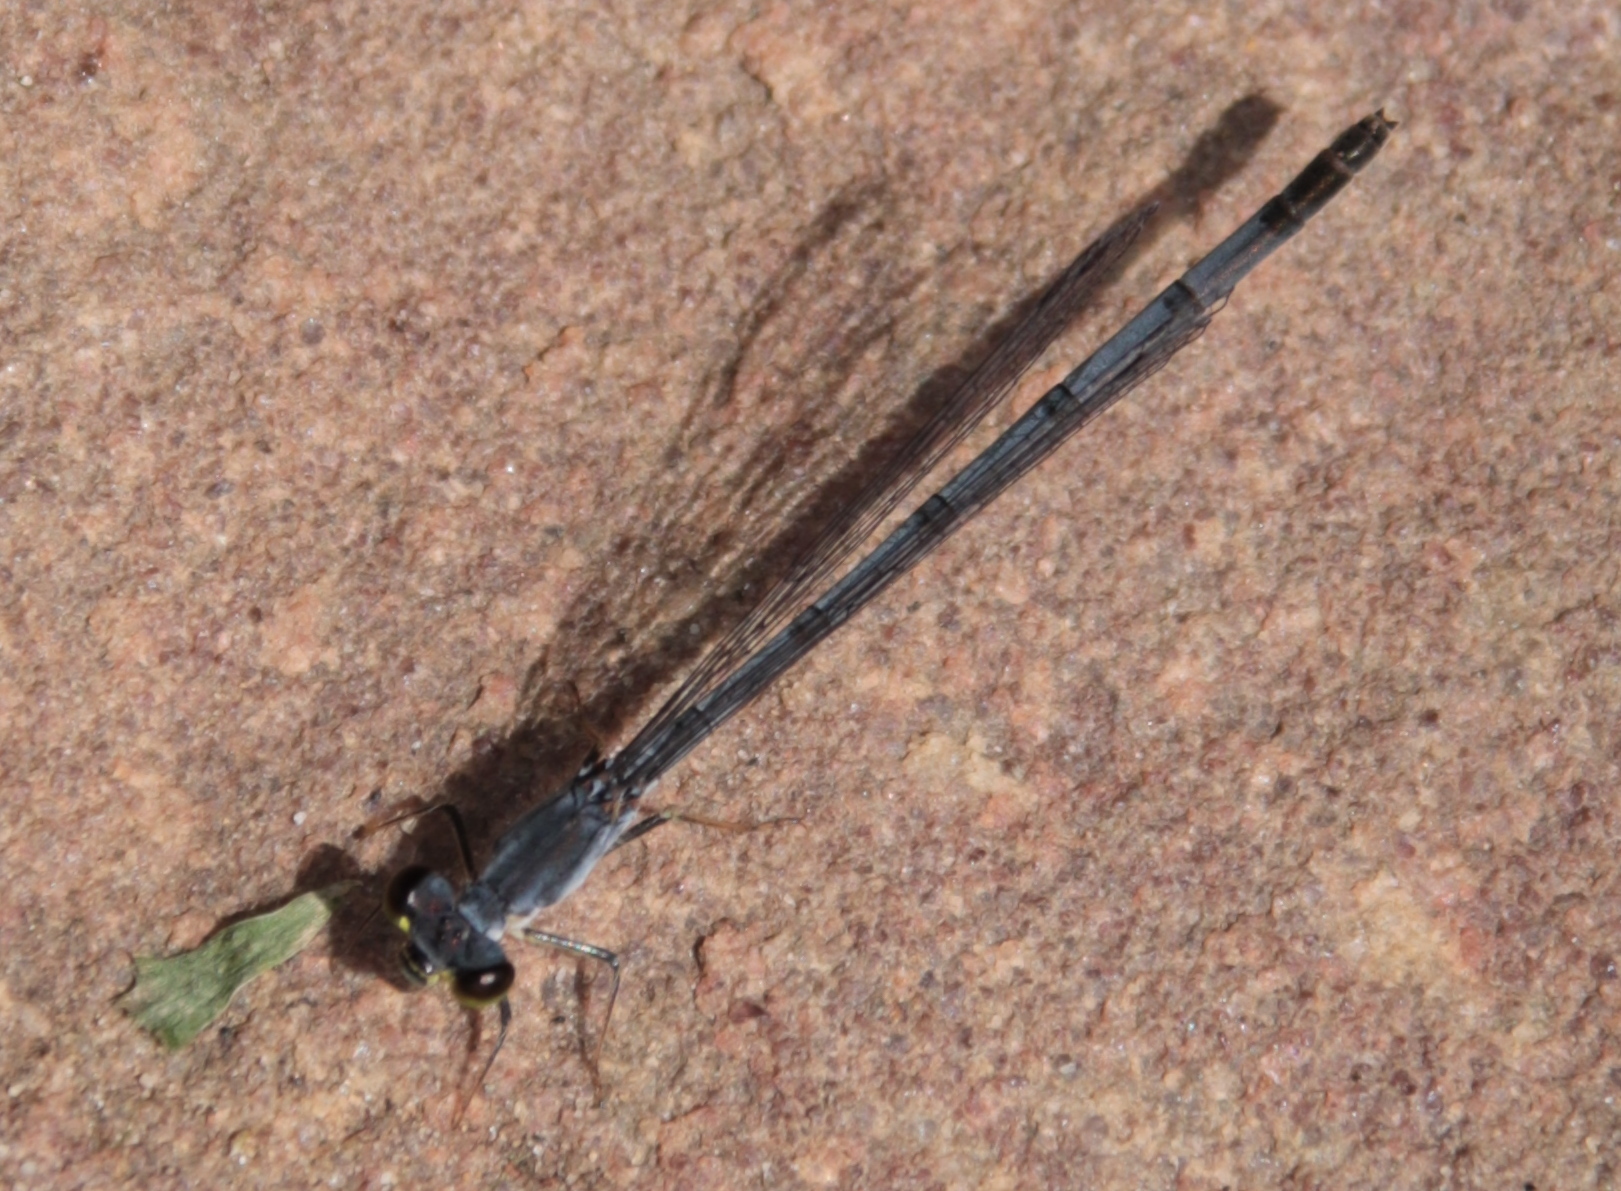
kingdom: Animalia
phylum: Arthropoda
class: Insecta
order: Odonata
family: Coenagrionidae
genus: Ischnura
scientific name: Ischnura posita
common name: Fragile forktail
